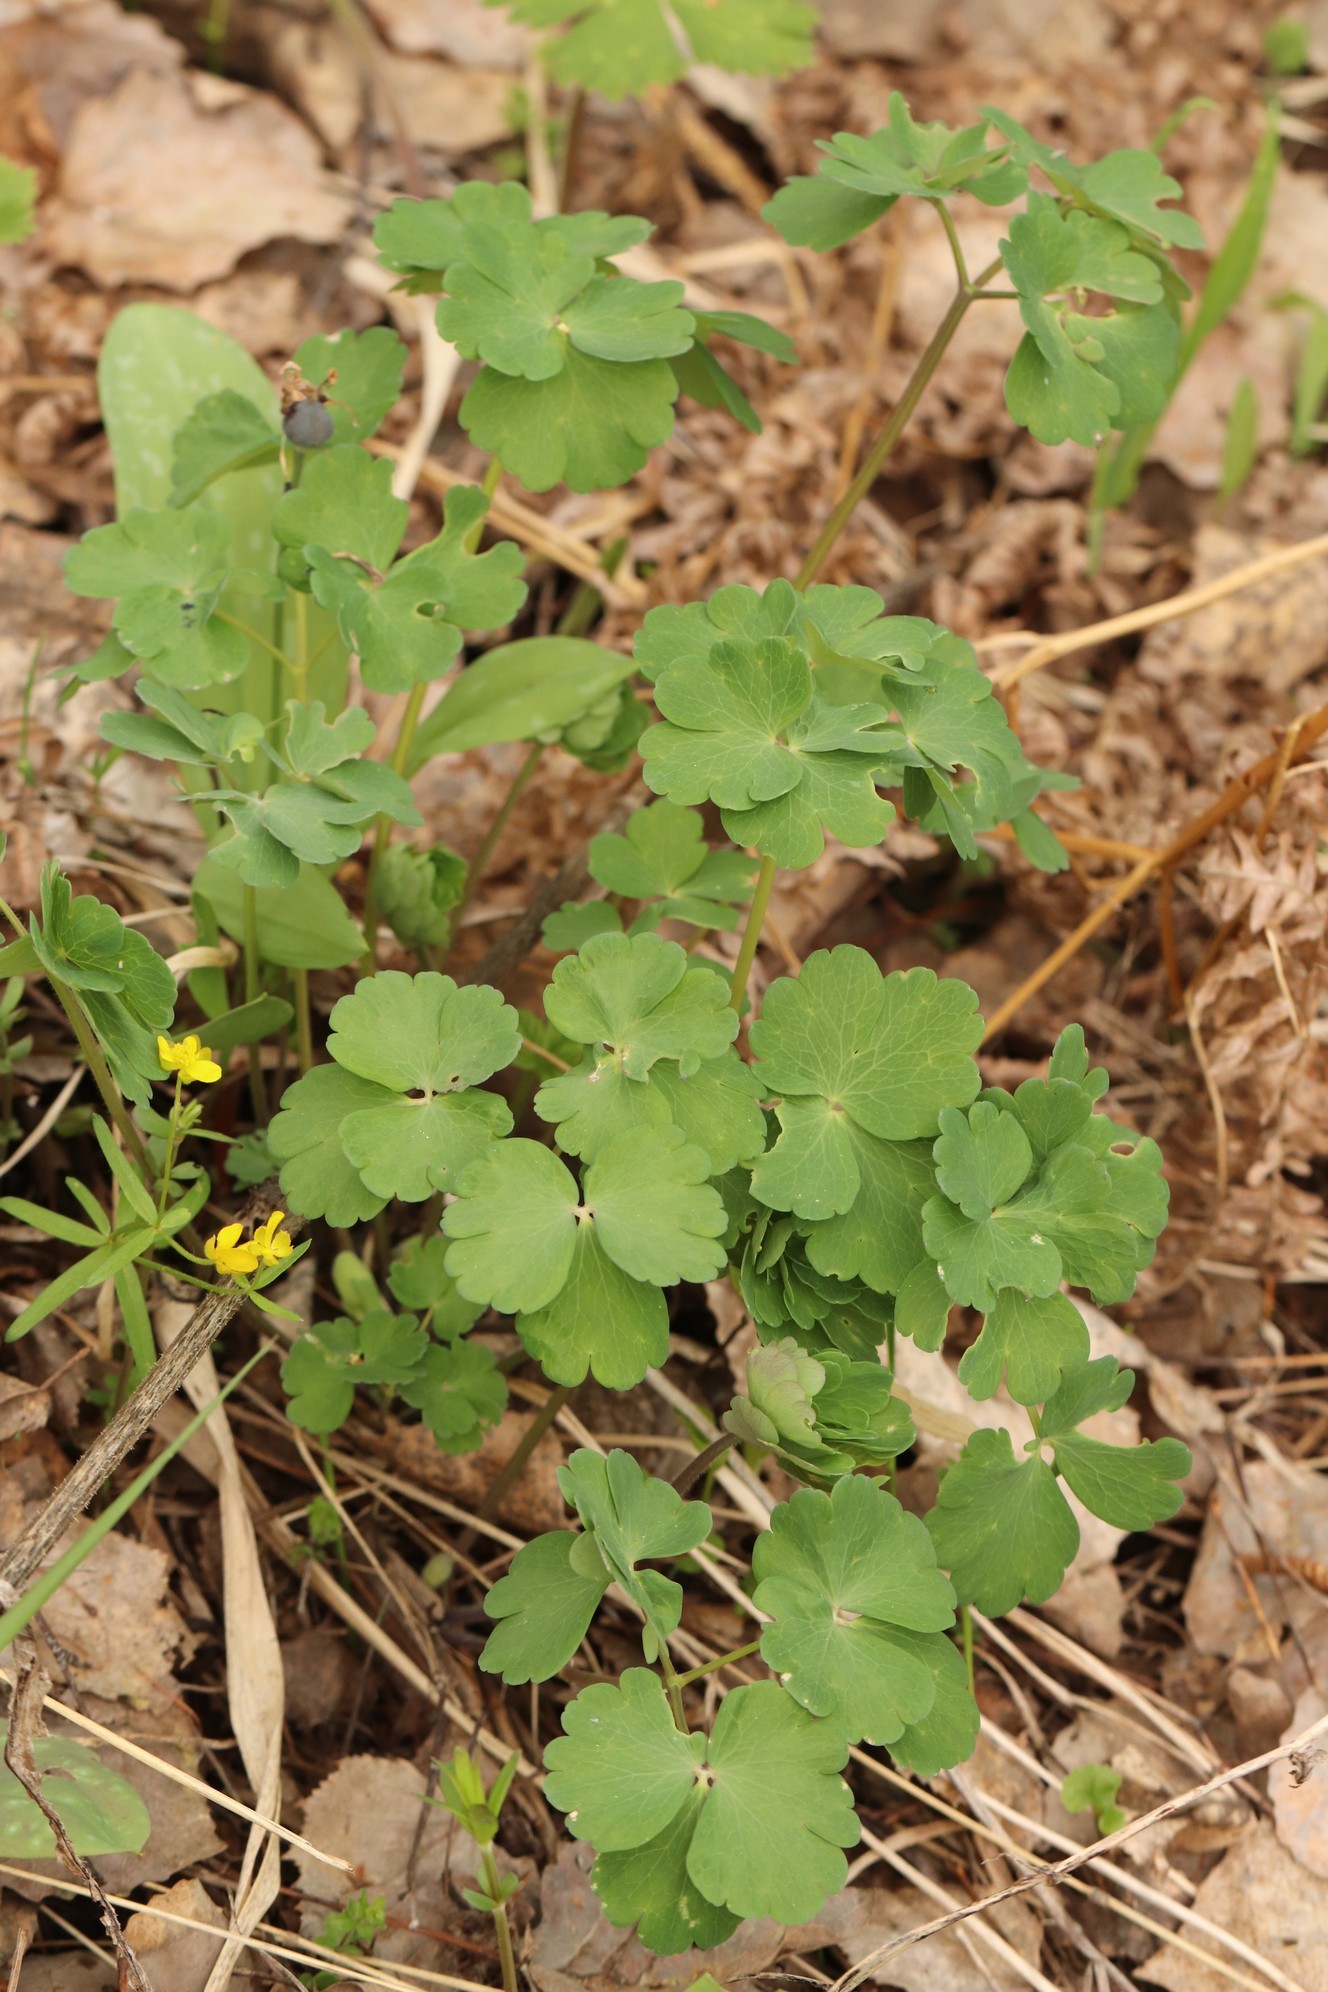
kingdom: Plantae
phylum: Tracheophyta
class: Magnoliopsida
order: Ranunculales
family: Ranunculaceae
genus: Aquilegia
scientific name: Aquilegia sibirica
